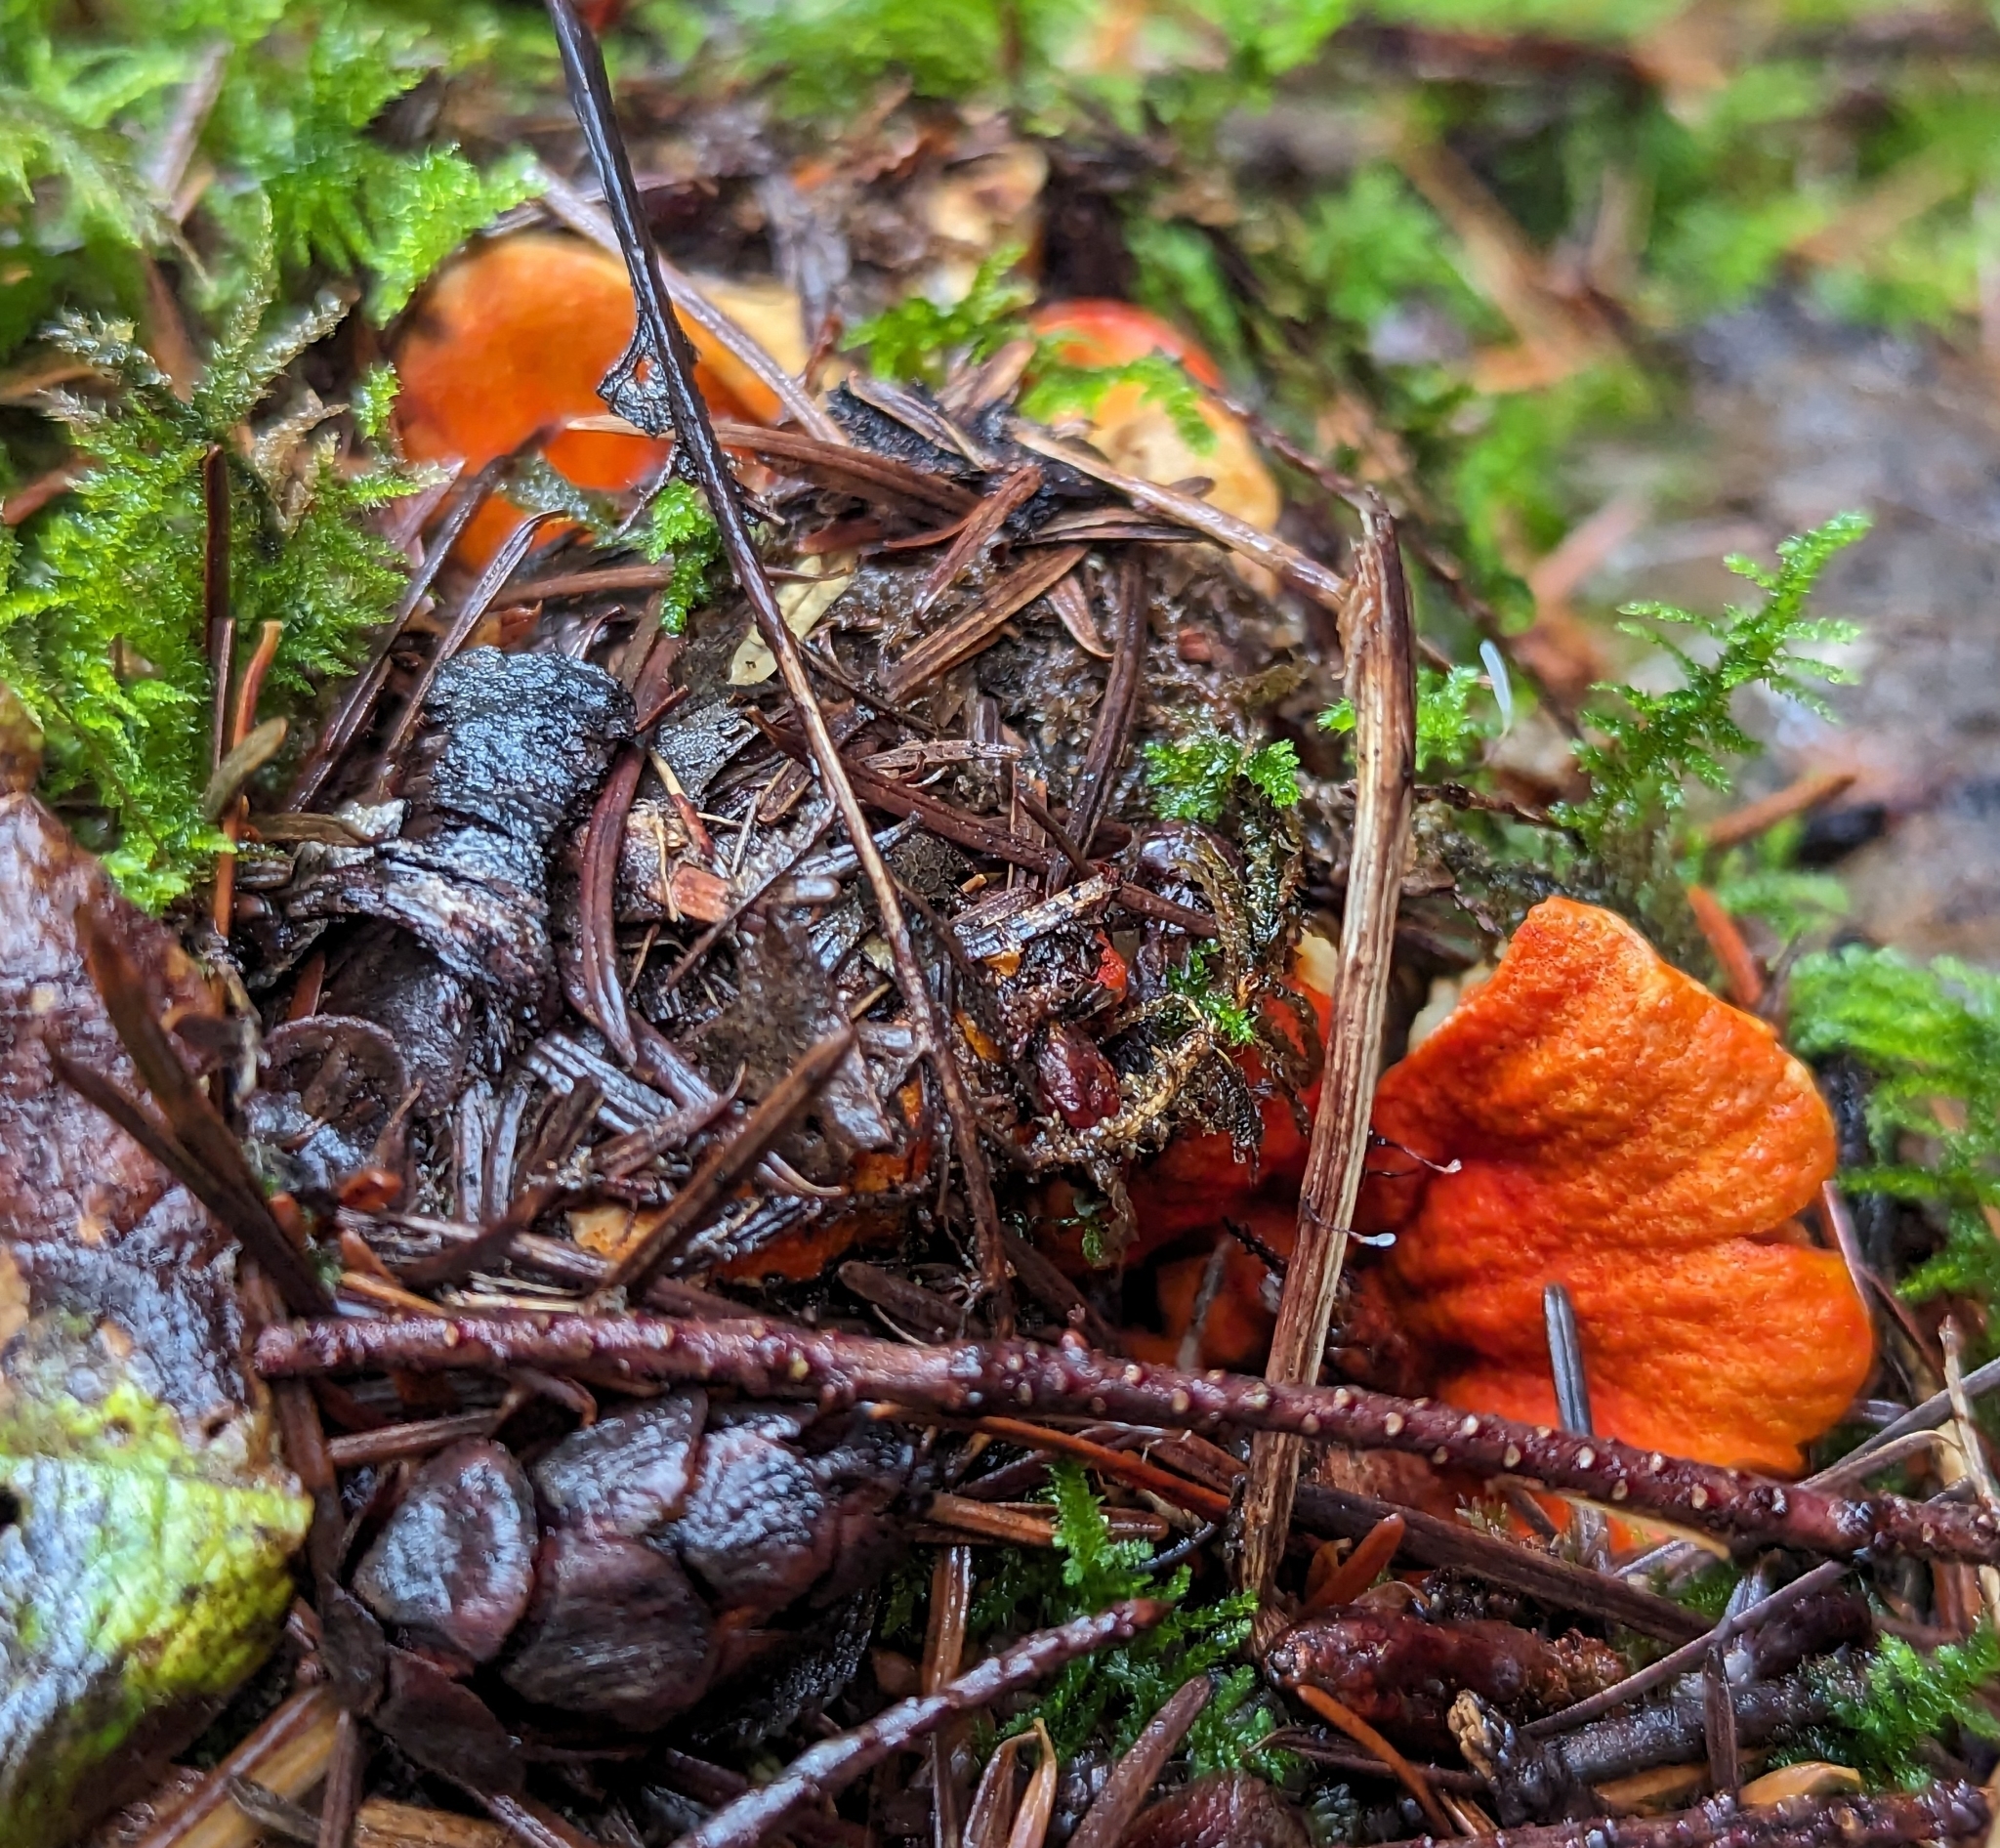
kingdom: Fungi
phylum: Ascomycota
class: Sordariomycetes
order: Hypocreales
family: Hypocreaceae
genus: Hypomyces
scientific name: Hypomyces lactifluorum
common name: Lobster mushroom
